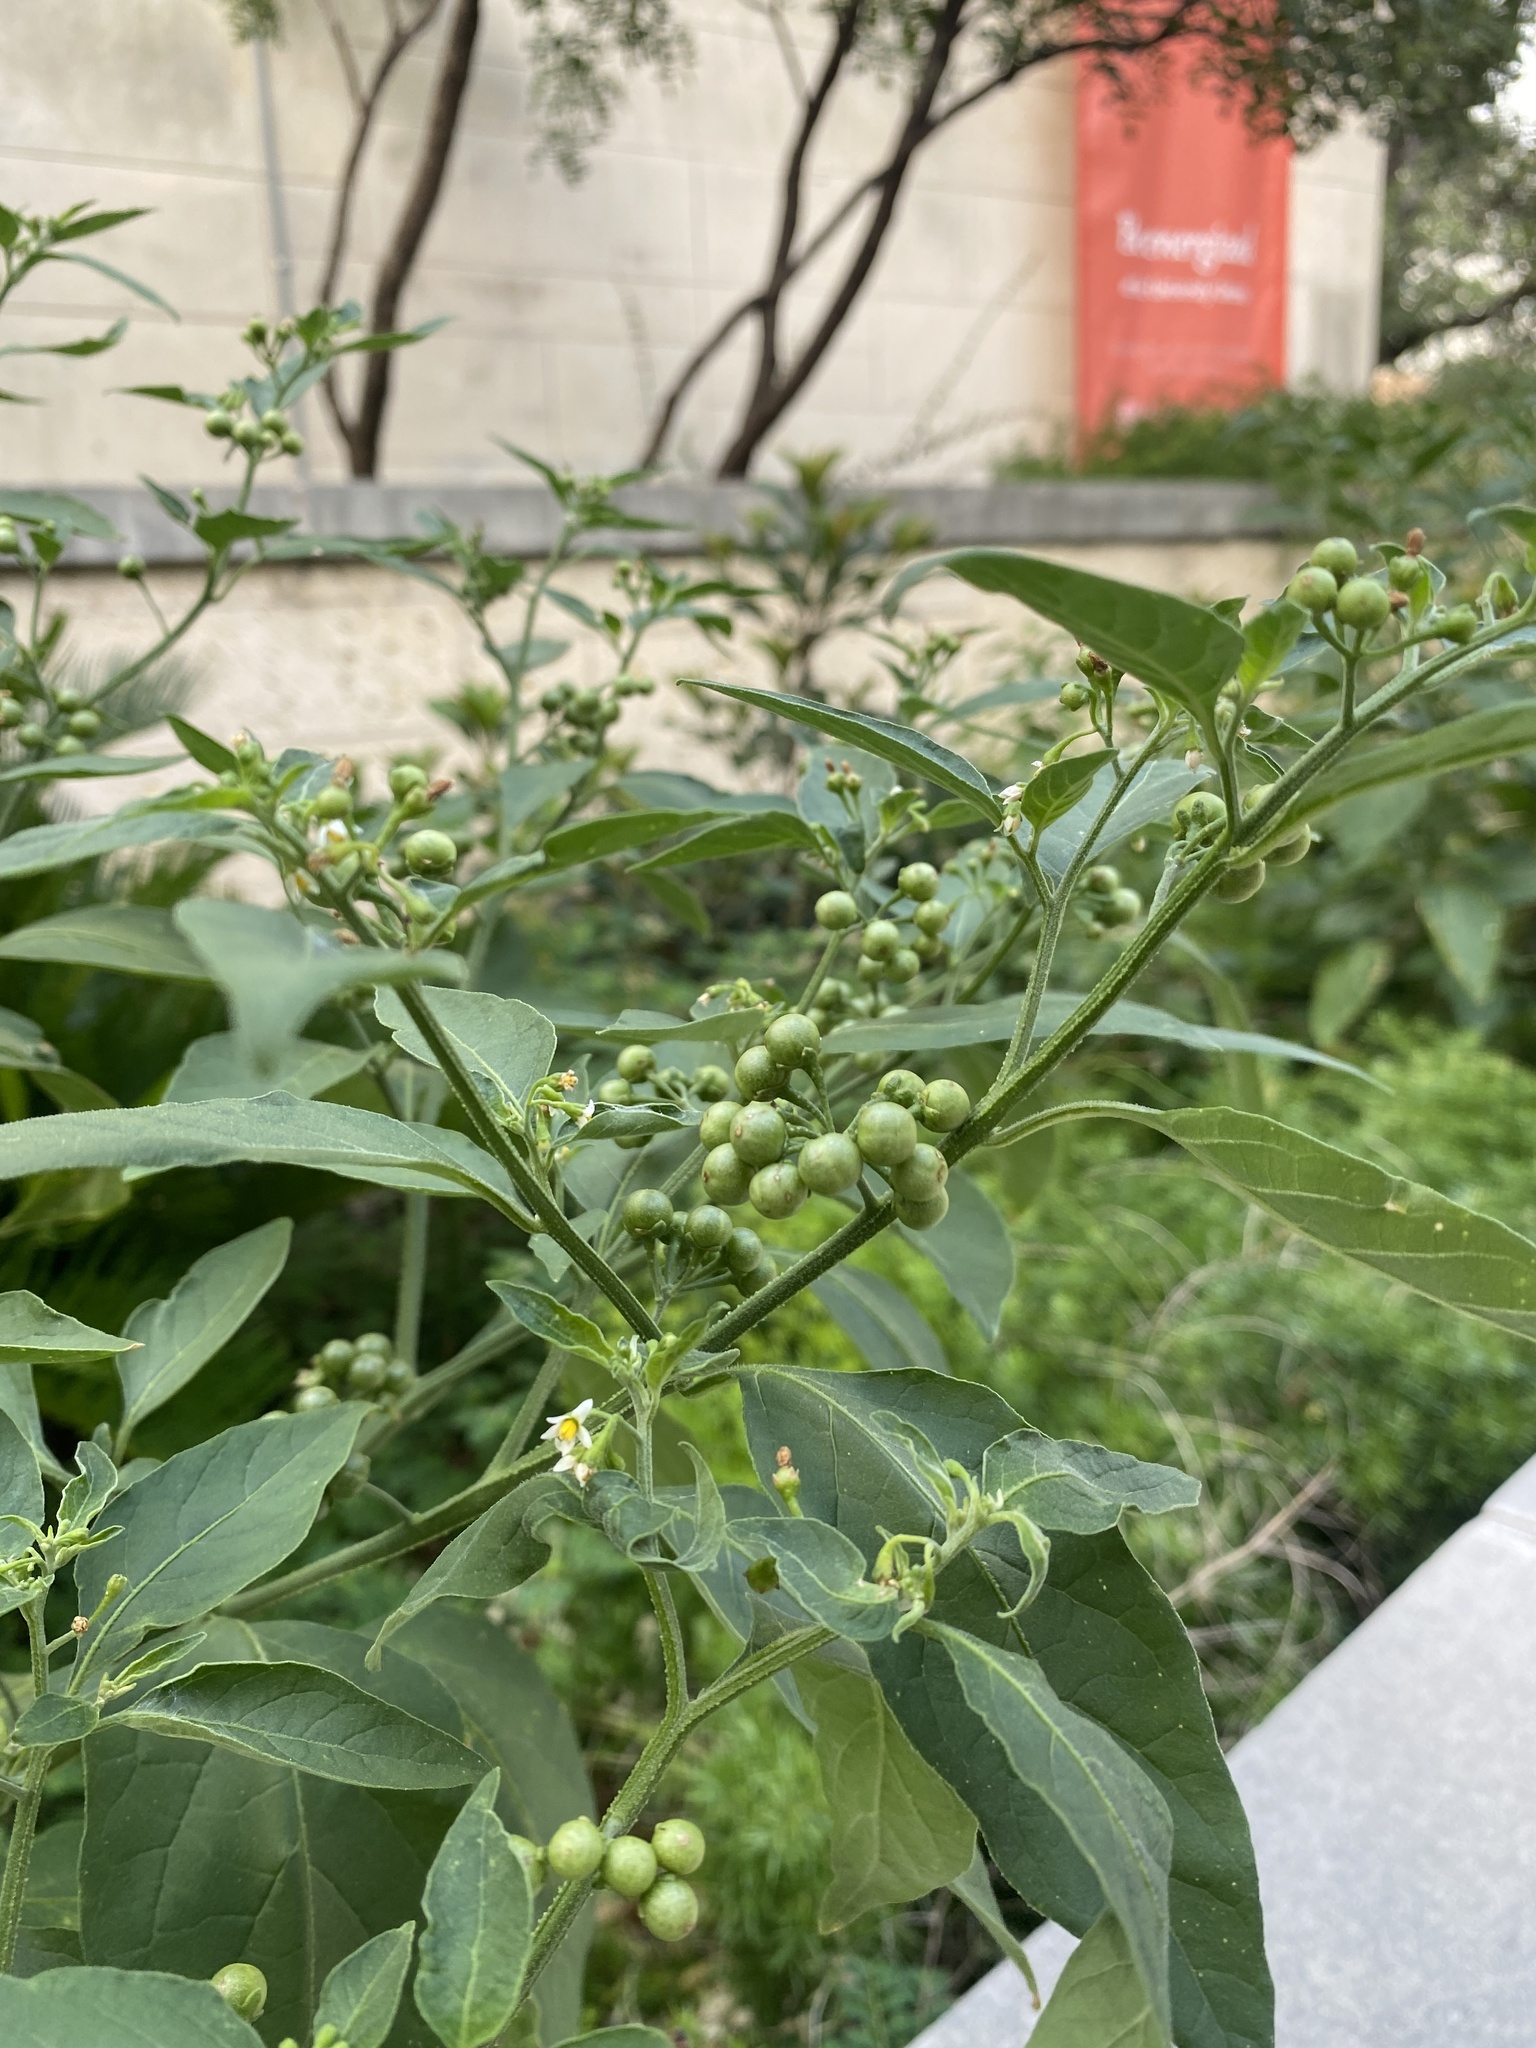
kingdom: Plantae
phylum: Tracheophyta
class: Magnoliopsida
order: Solanales
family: Solanaceae
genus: Solanum
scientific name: Solanum americanum
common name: American black nightshade
